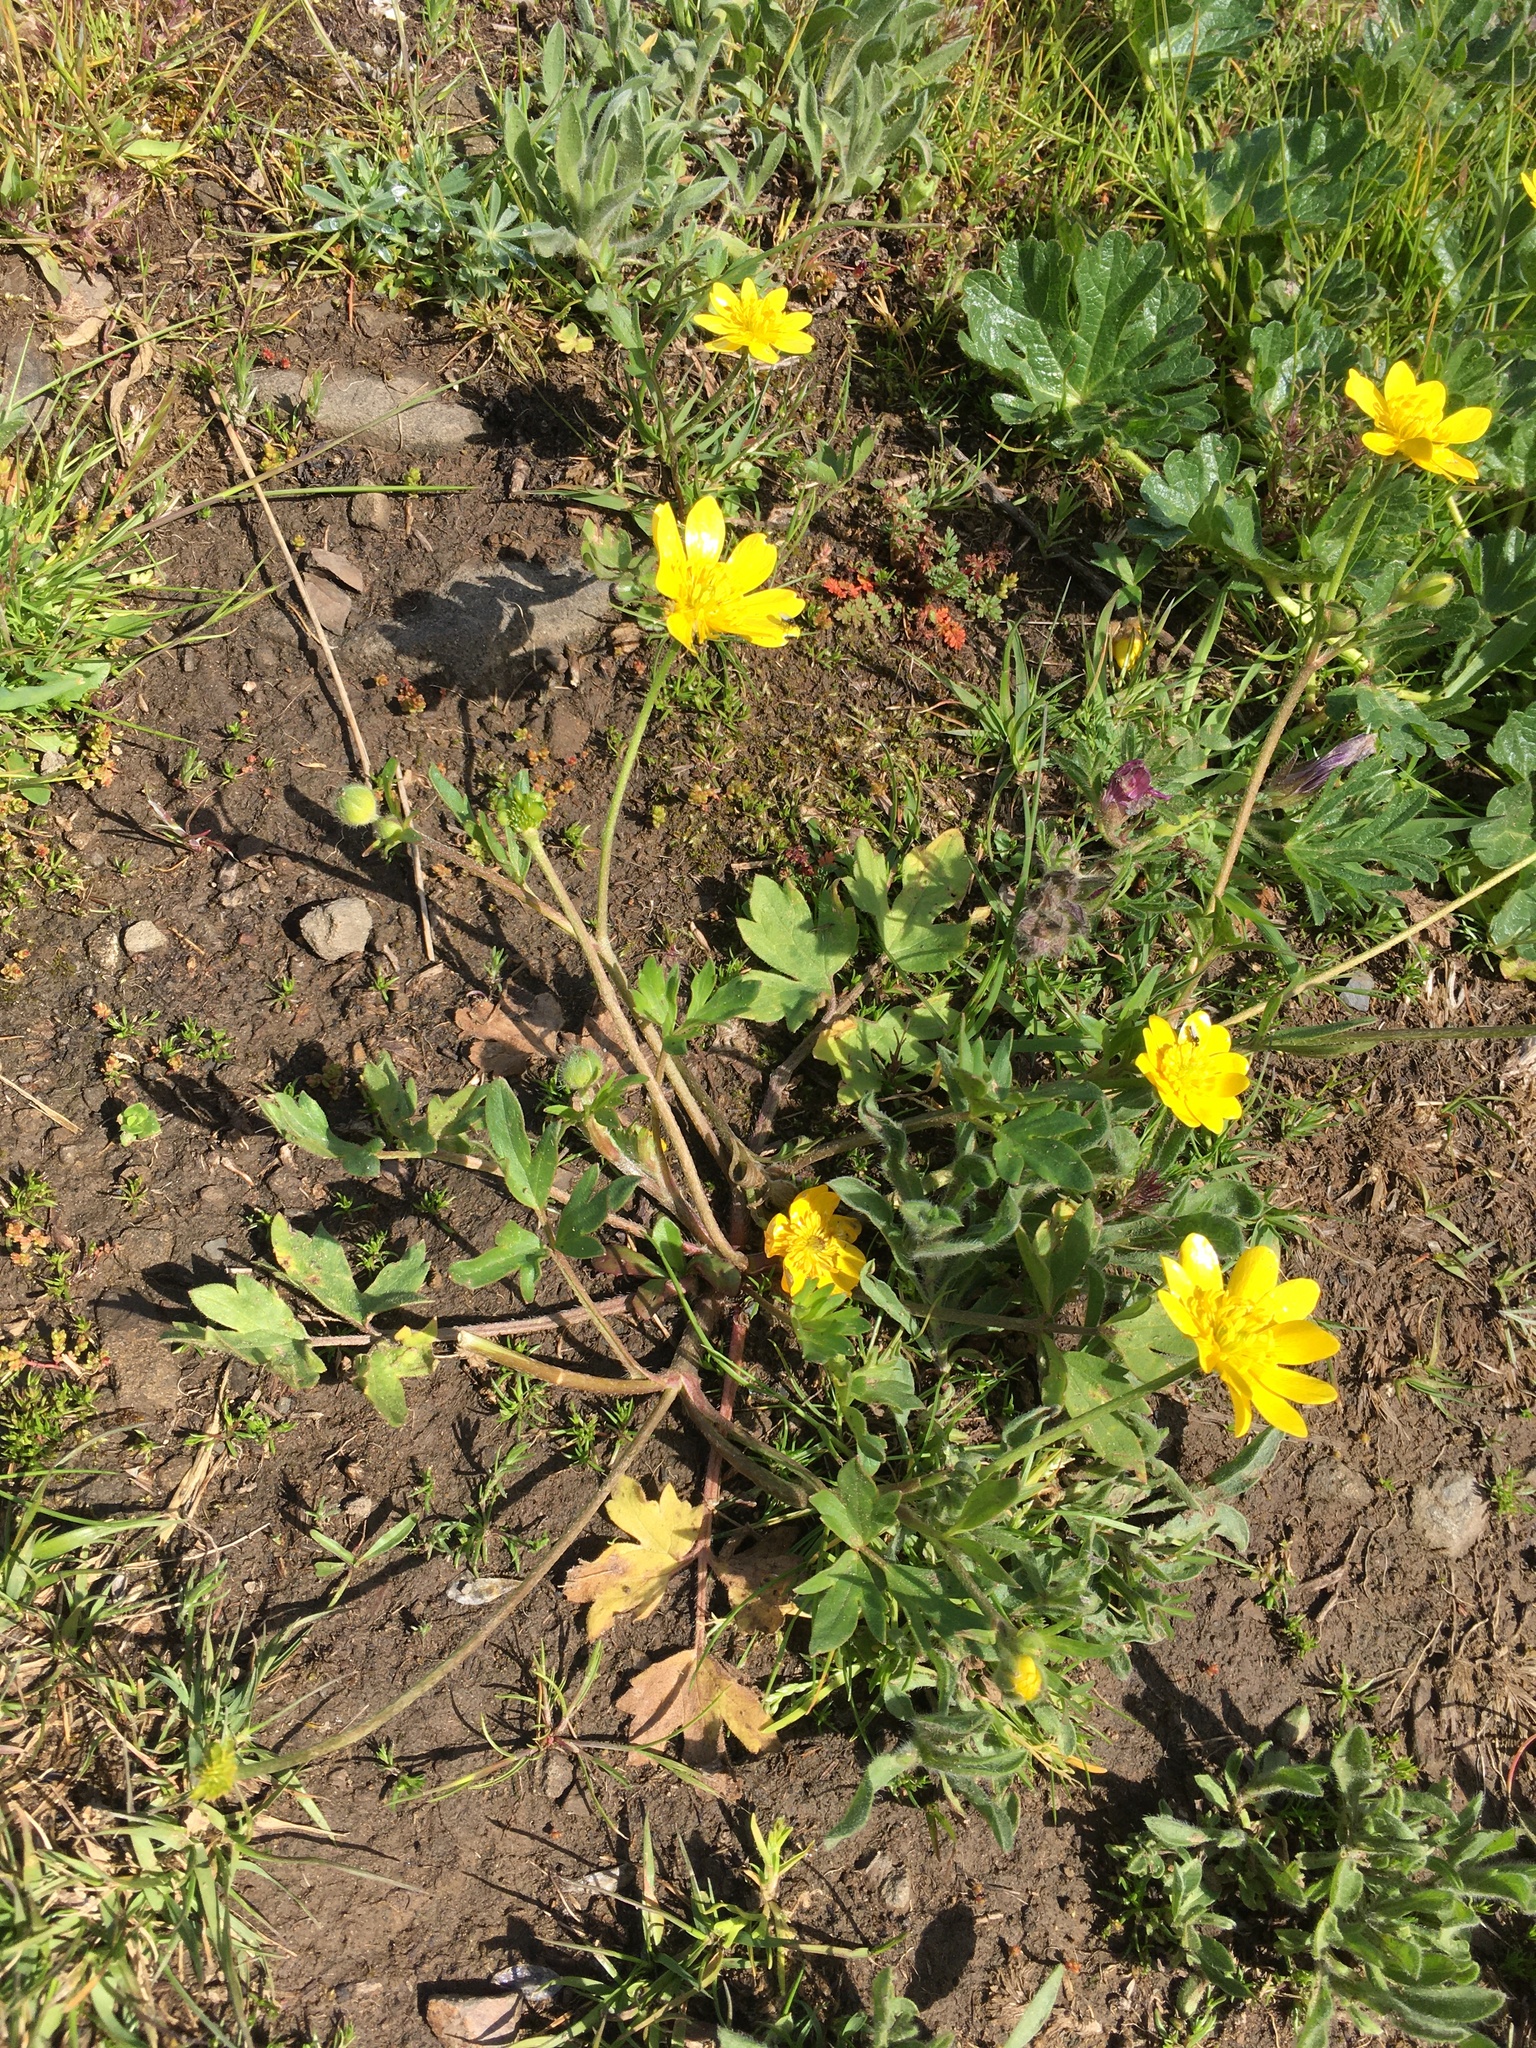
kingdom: Plantae
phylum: Tracheophyta
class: Magnoliopsida
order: Ranunculales
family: Ranunculaceae
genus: Ranunculus
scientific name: Ranunculus californicus
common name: California buttercup
